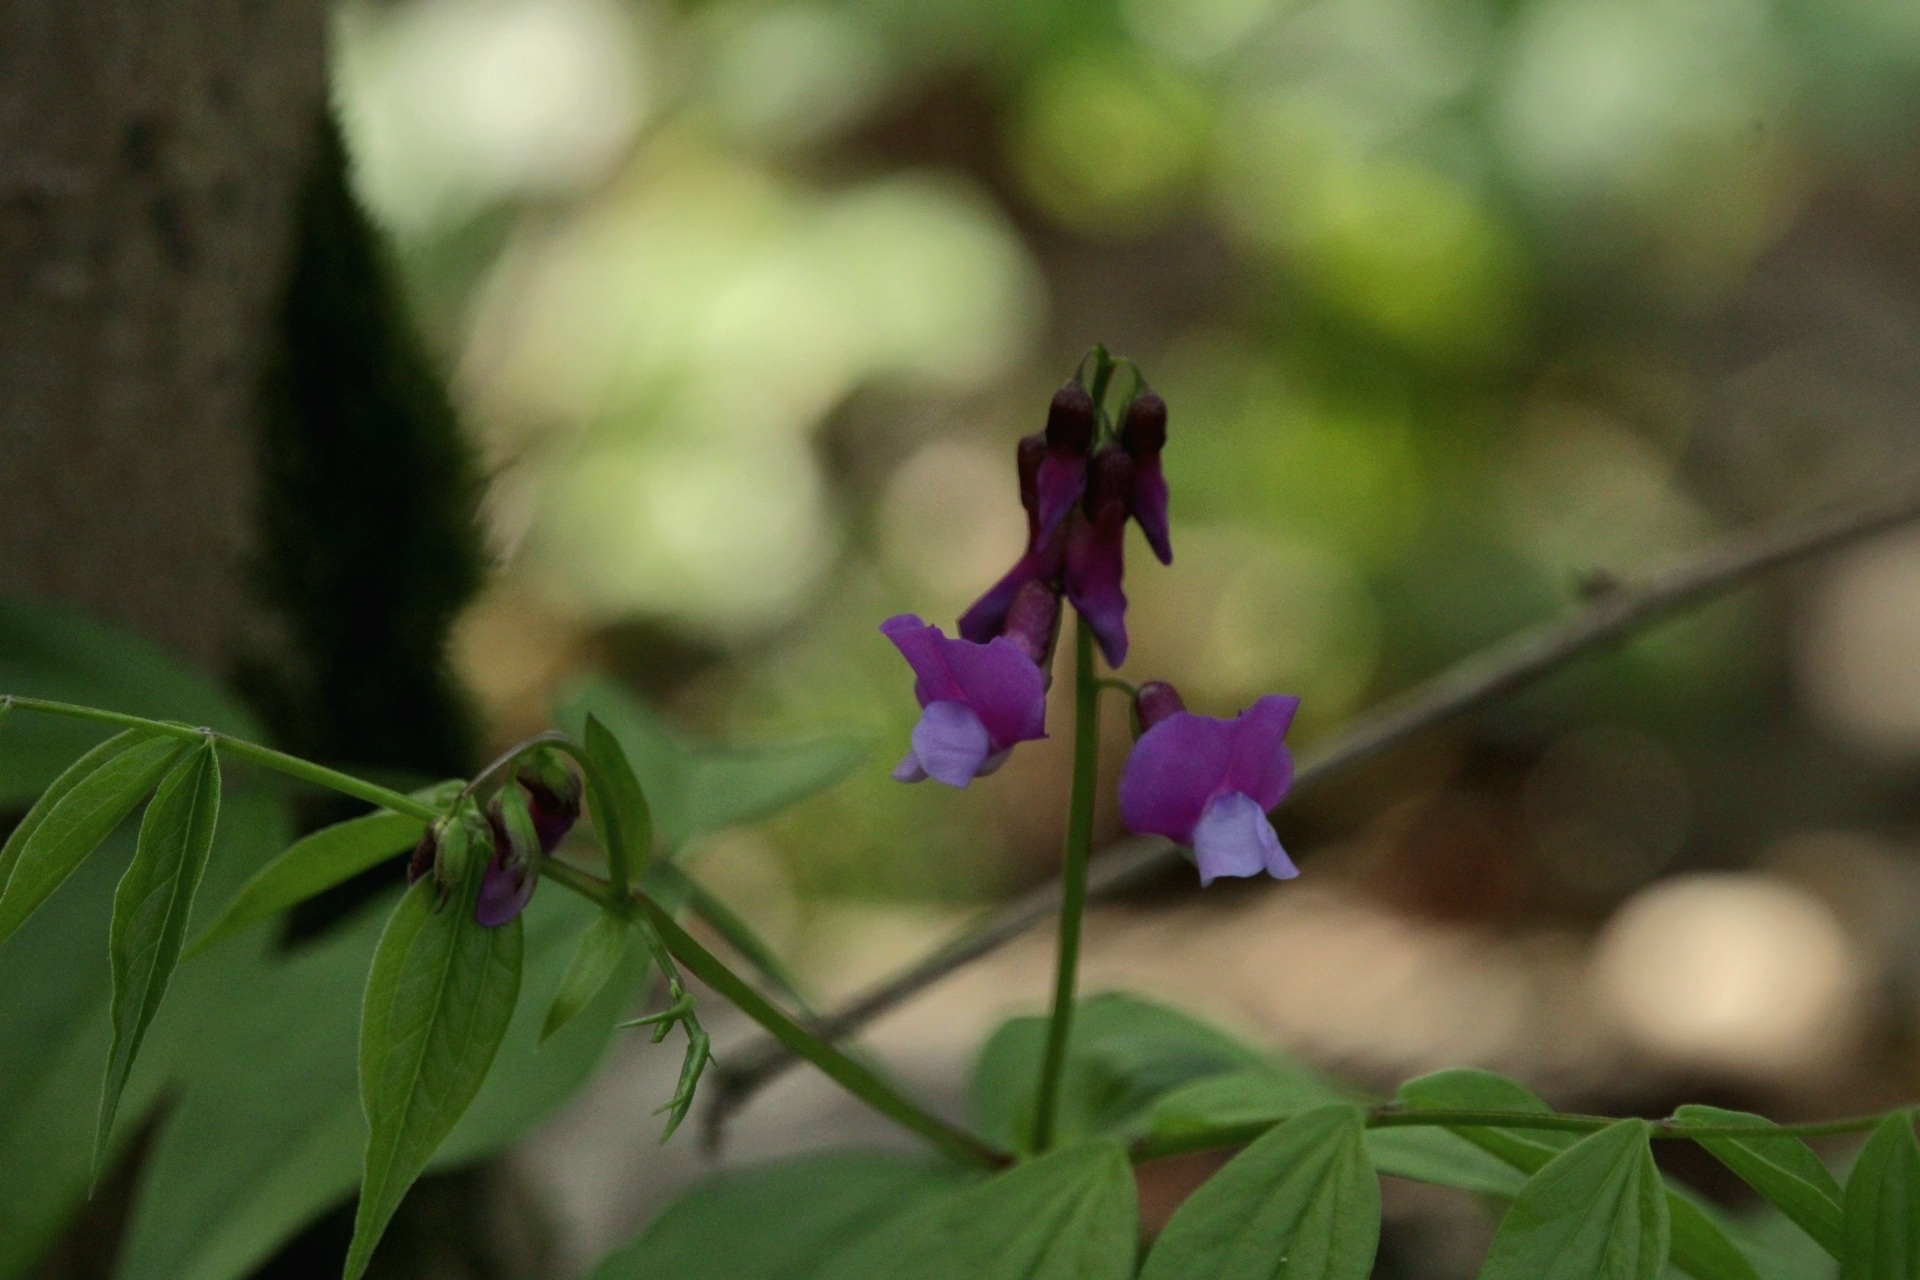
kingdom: Plantae
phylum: Tracheophyta
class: Magnoliopsida
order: Fabales
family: Fabaceae
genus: Lathyrus
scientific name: Lathyrus vernus
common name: Spring pea
